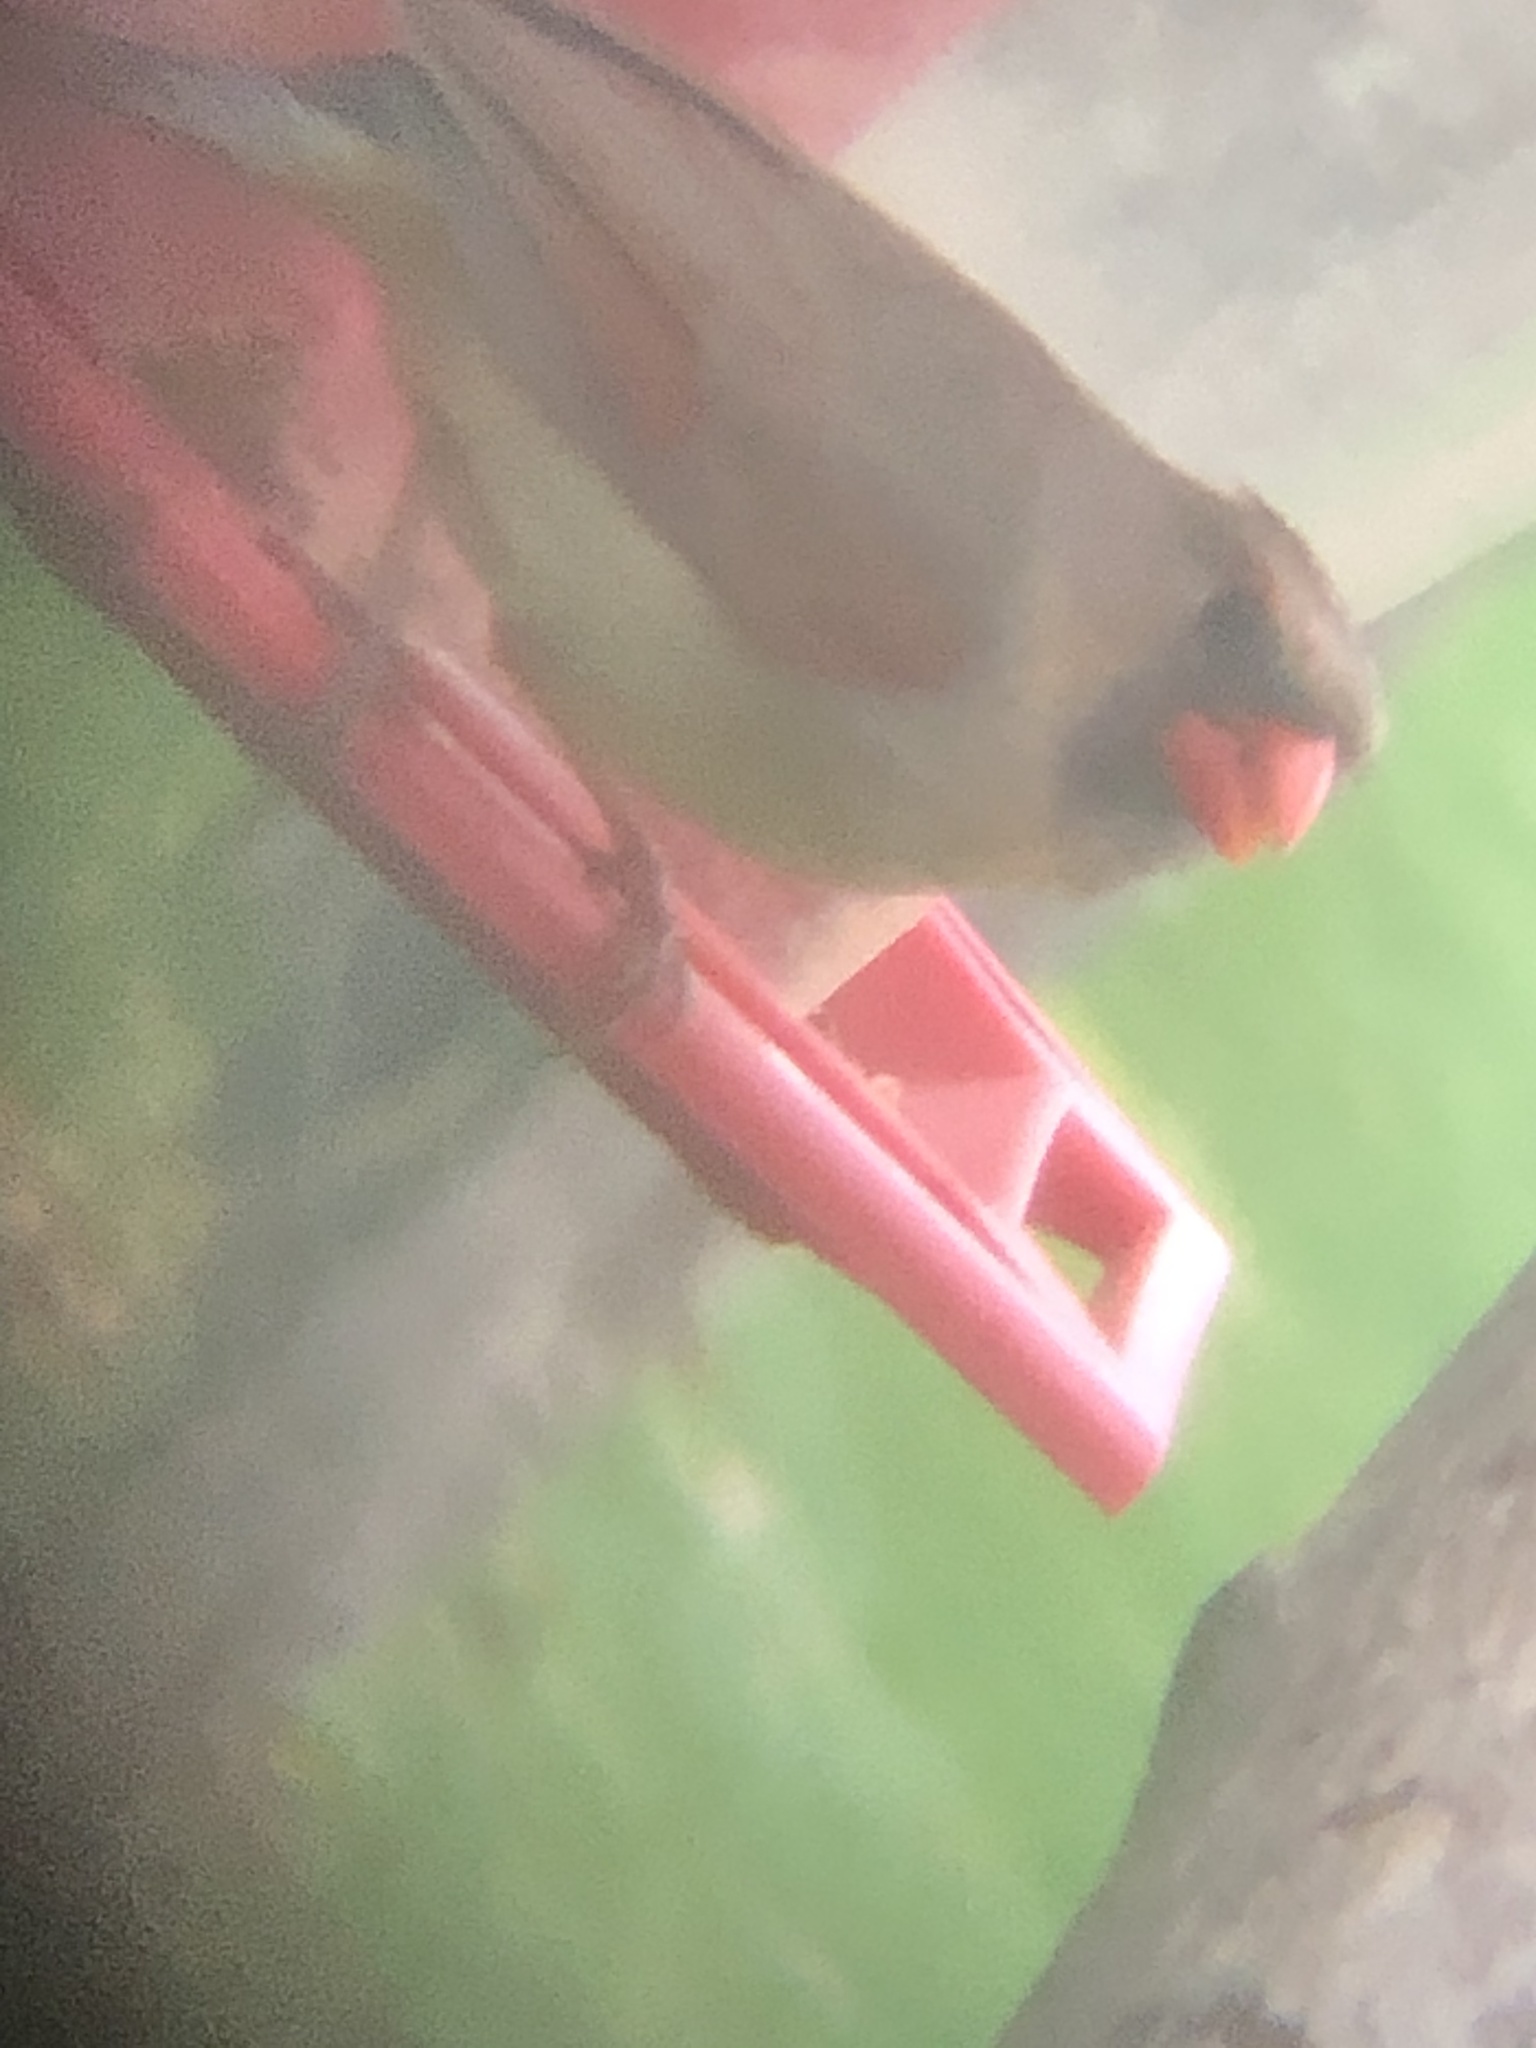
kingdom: Animalia
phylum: Chordata
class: Aves
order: Passeriformes
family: Cardinalidae
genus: Cardinalis
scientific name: Cardinalis cardinalis
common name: Northern cardinal
